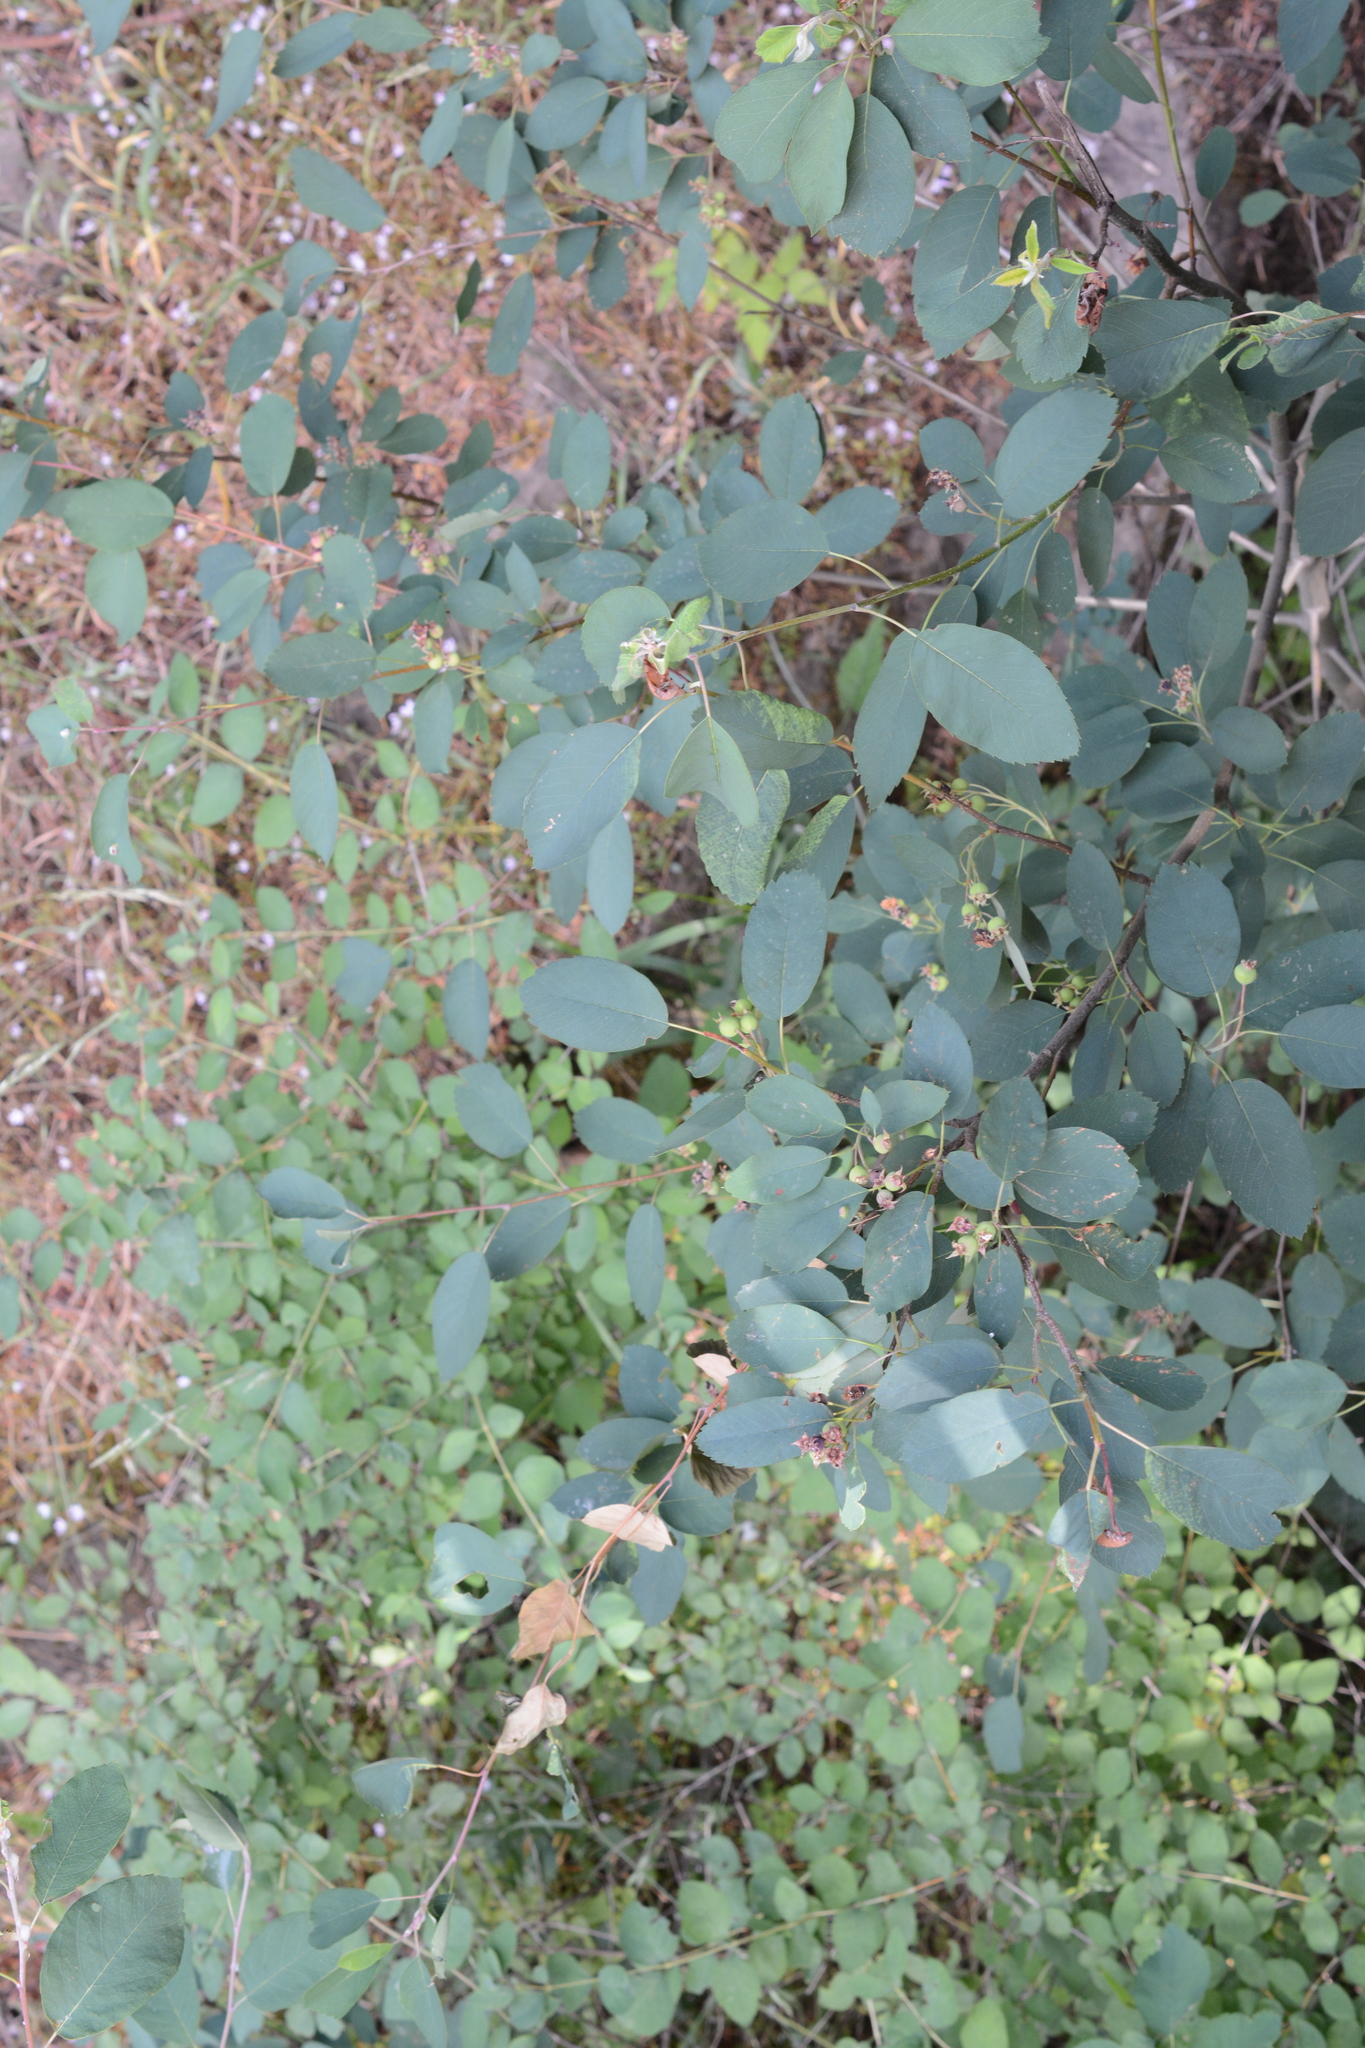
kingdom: Plantae
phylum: Tracheophyta
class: Magnoliopsida
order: Rosales
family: Rosaceae
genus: Amelanchier
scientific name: Amelanchier alnifolia
